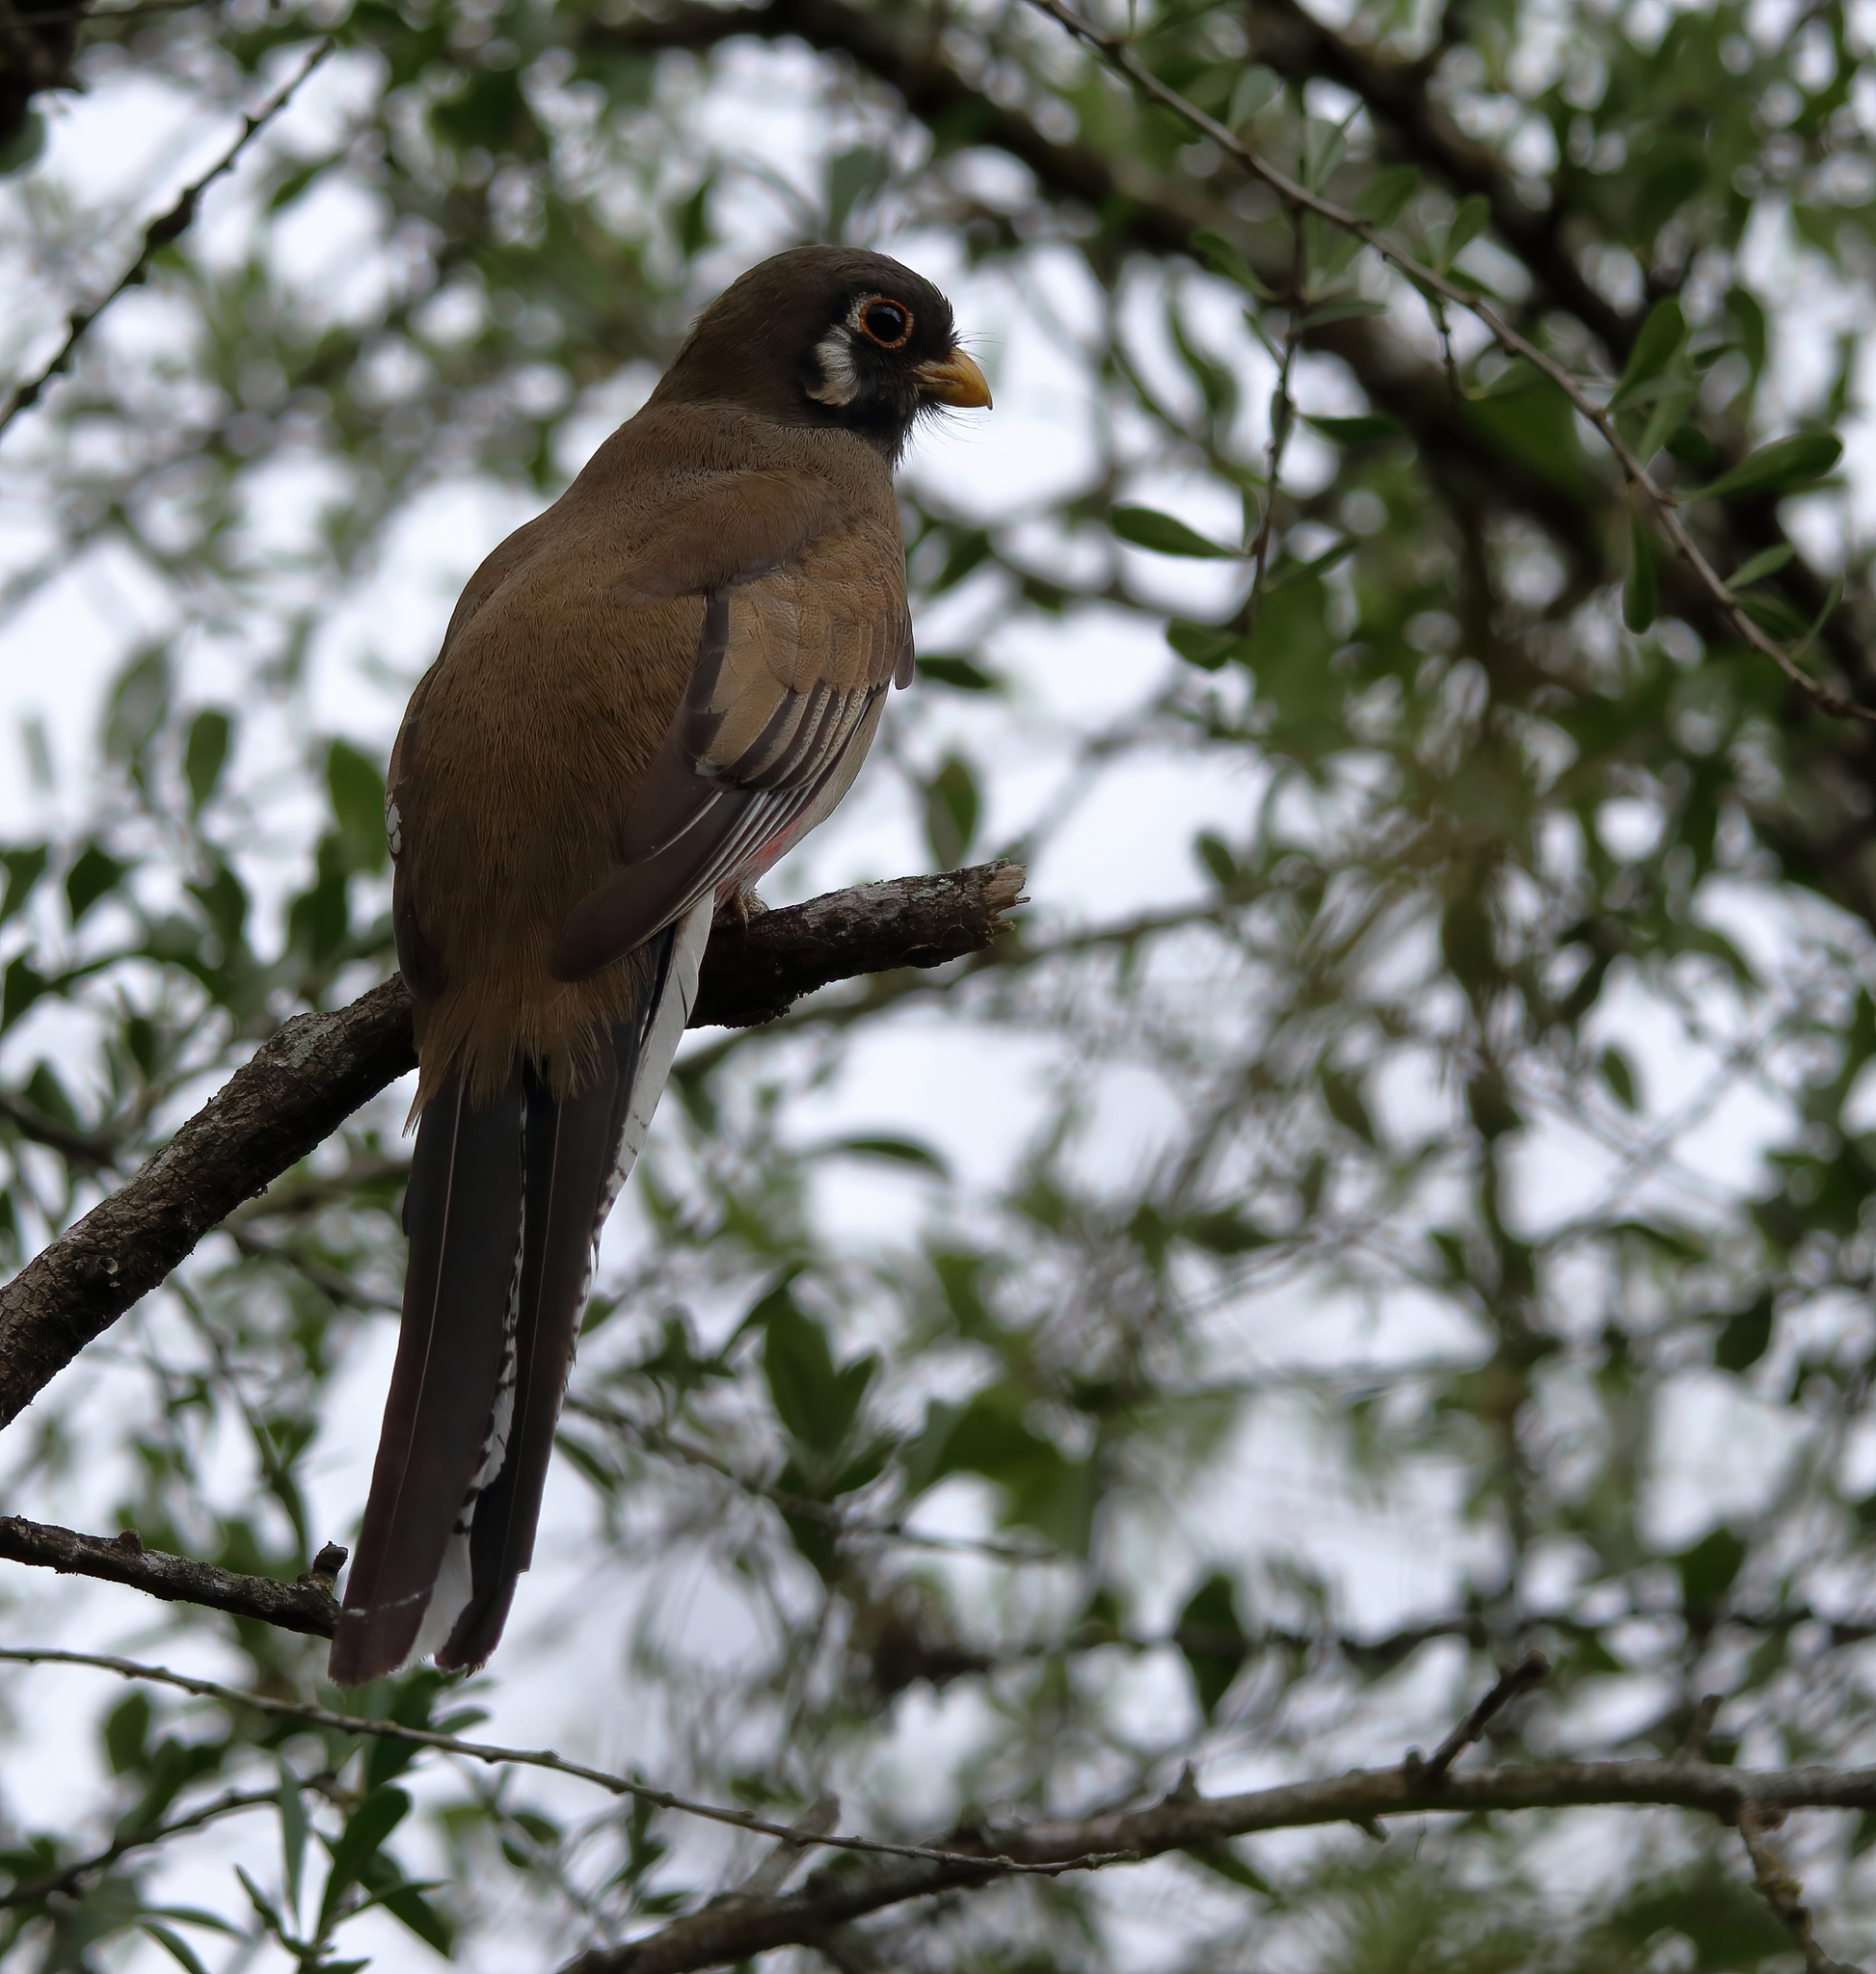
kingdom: Animalia
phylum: Chordata
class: Aves
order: Trogoniformes
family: Trogonidae
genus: Trogon
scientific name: Trogon elegans
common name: Elegant trogon
